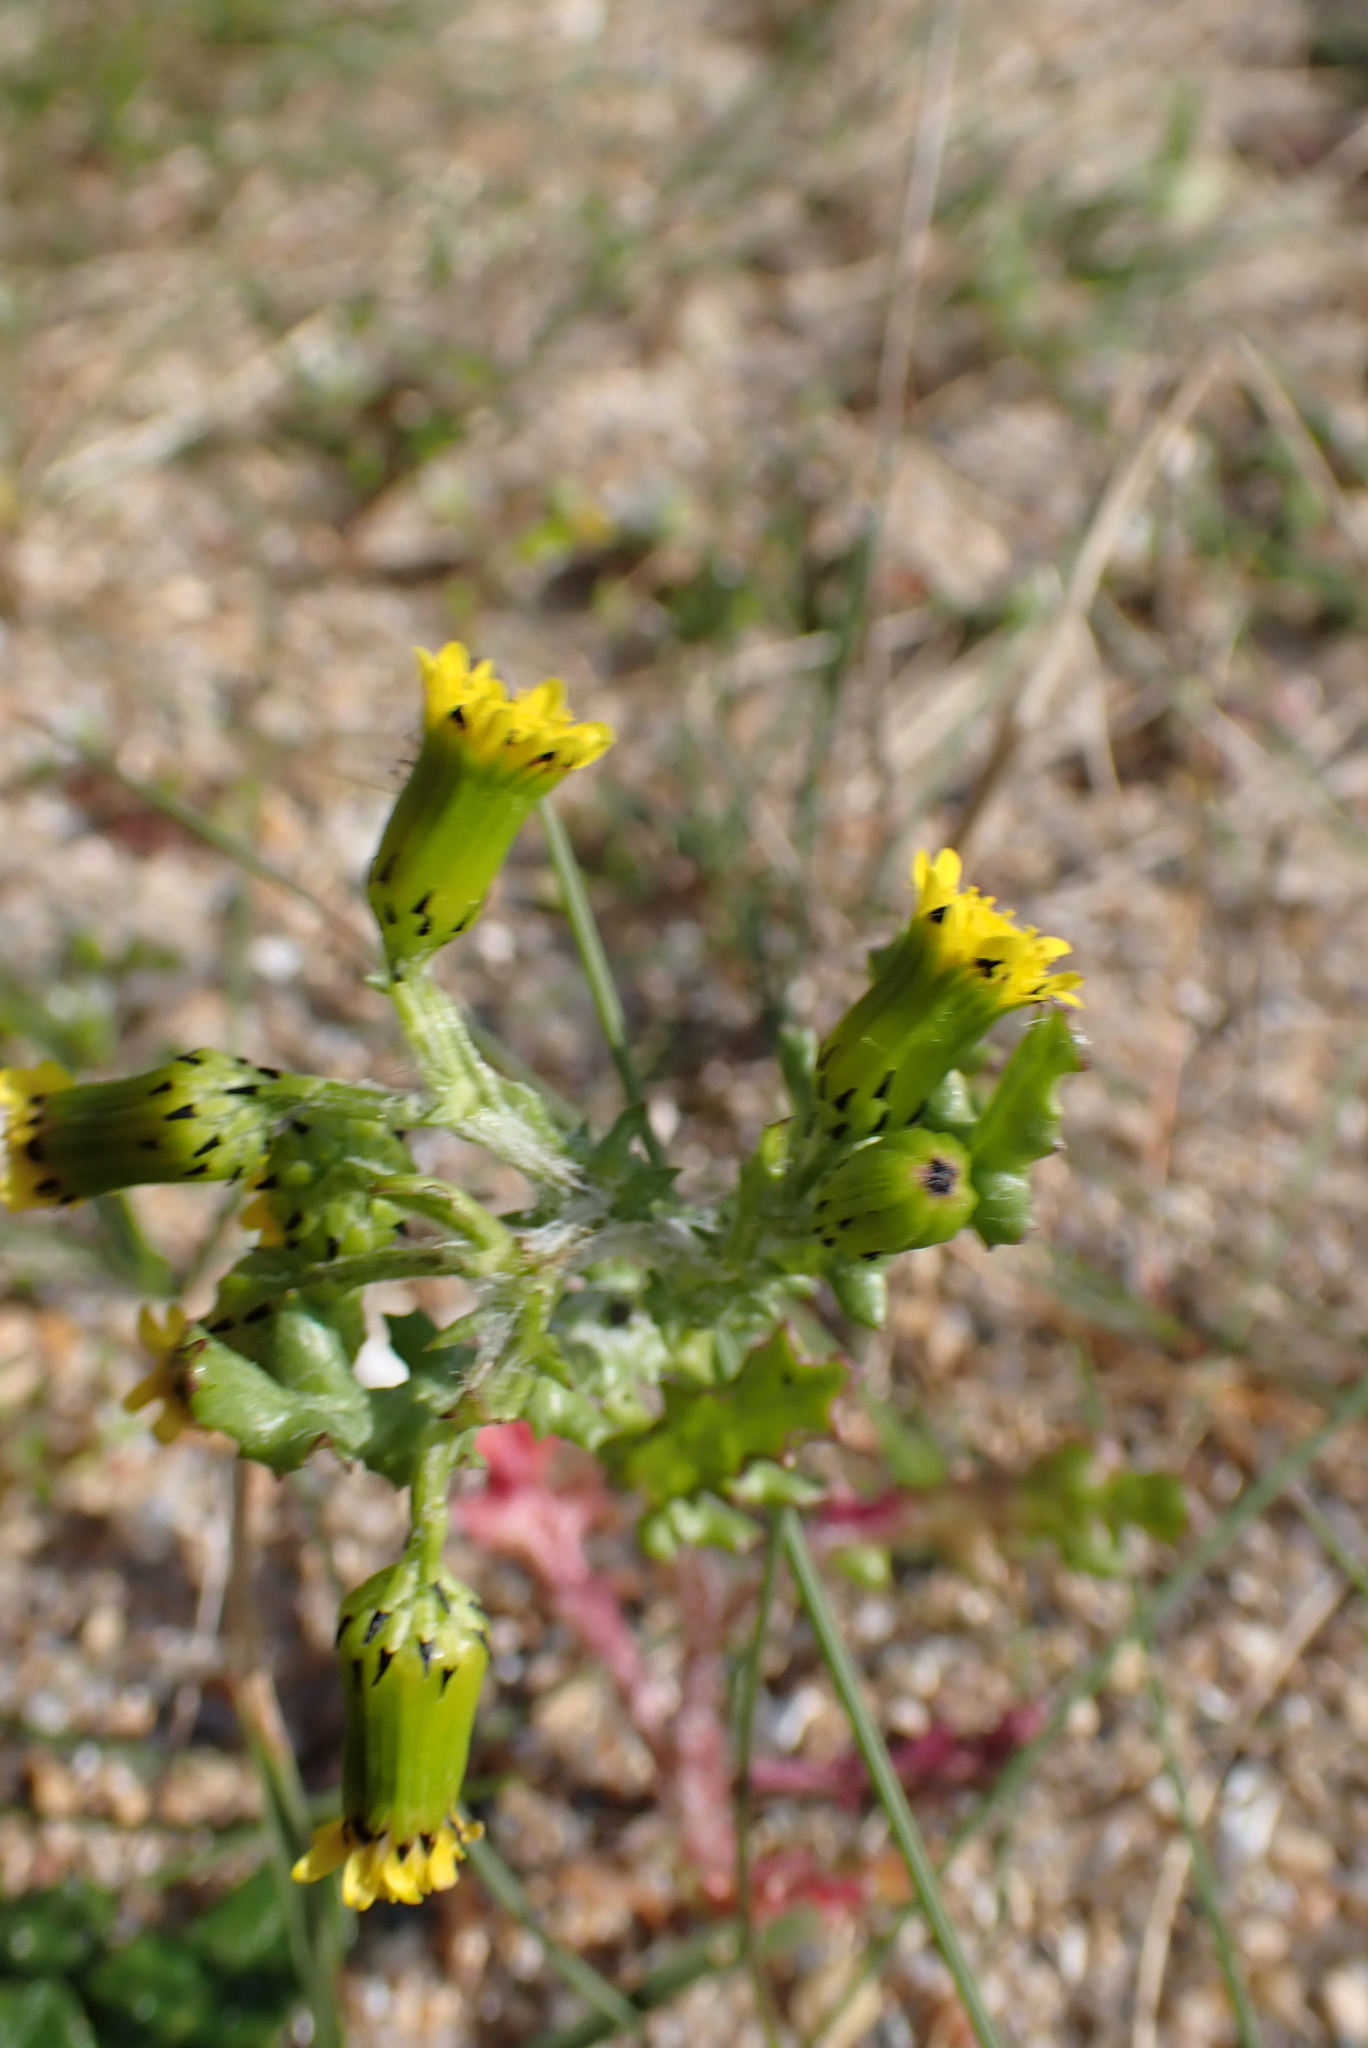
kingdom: Plantae
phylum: Tracheophyta
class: Magnoliopsida
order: Asterales
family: Asteraceae
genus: Senecio
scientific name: Senecio vulgaris
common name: Old-man-in-the-spring
